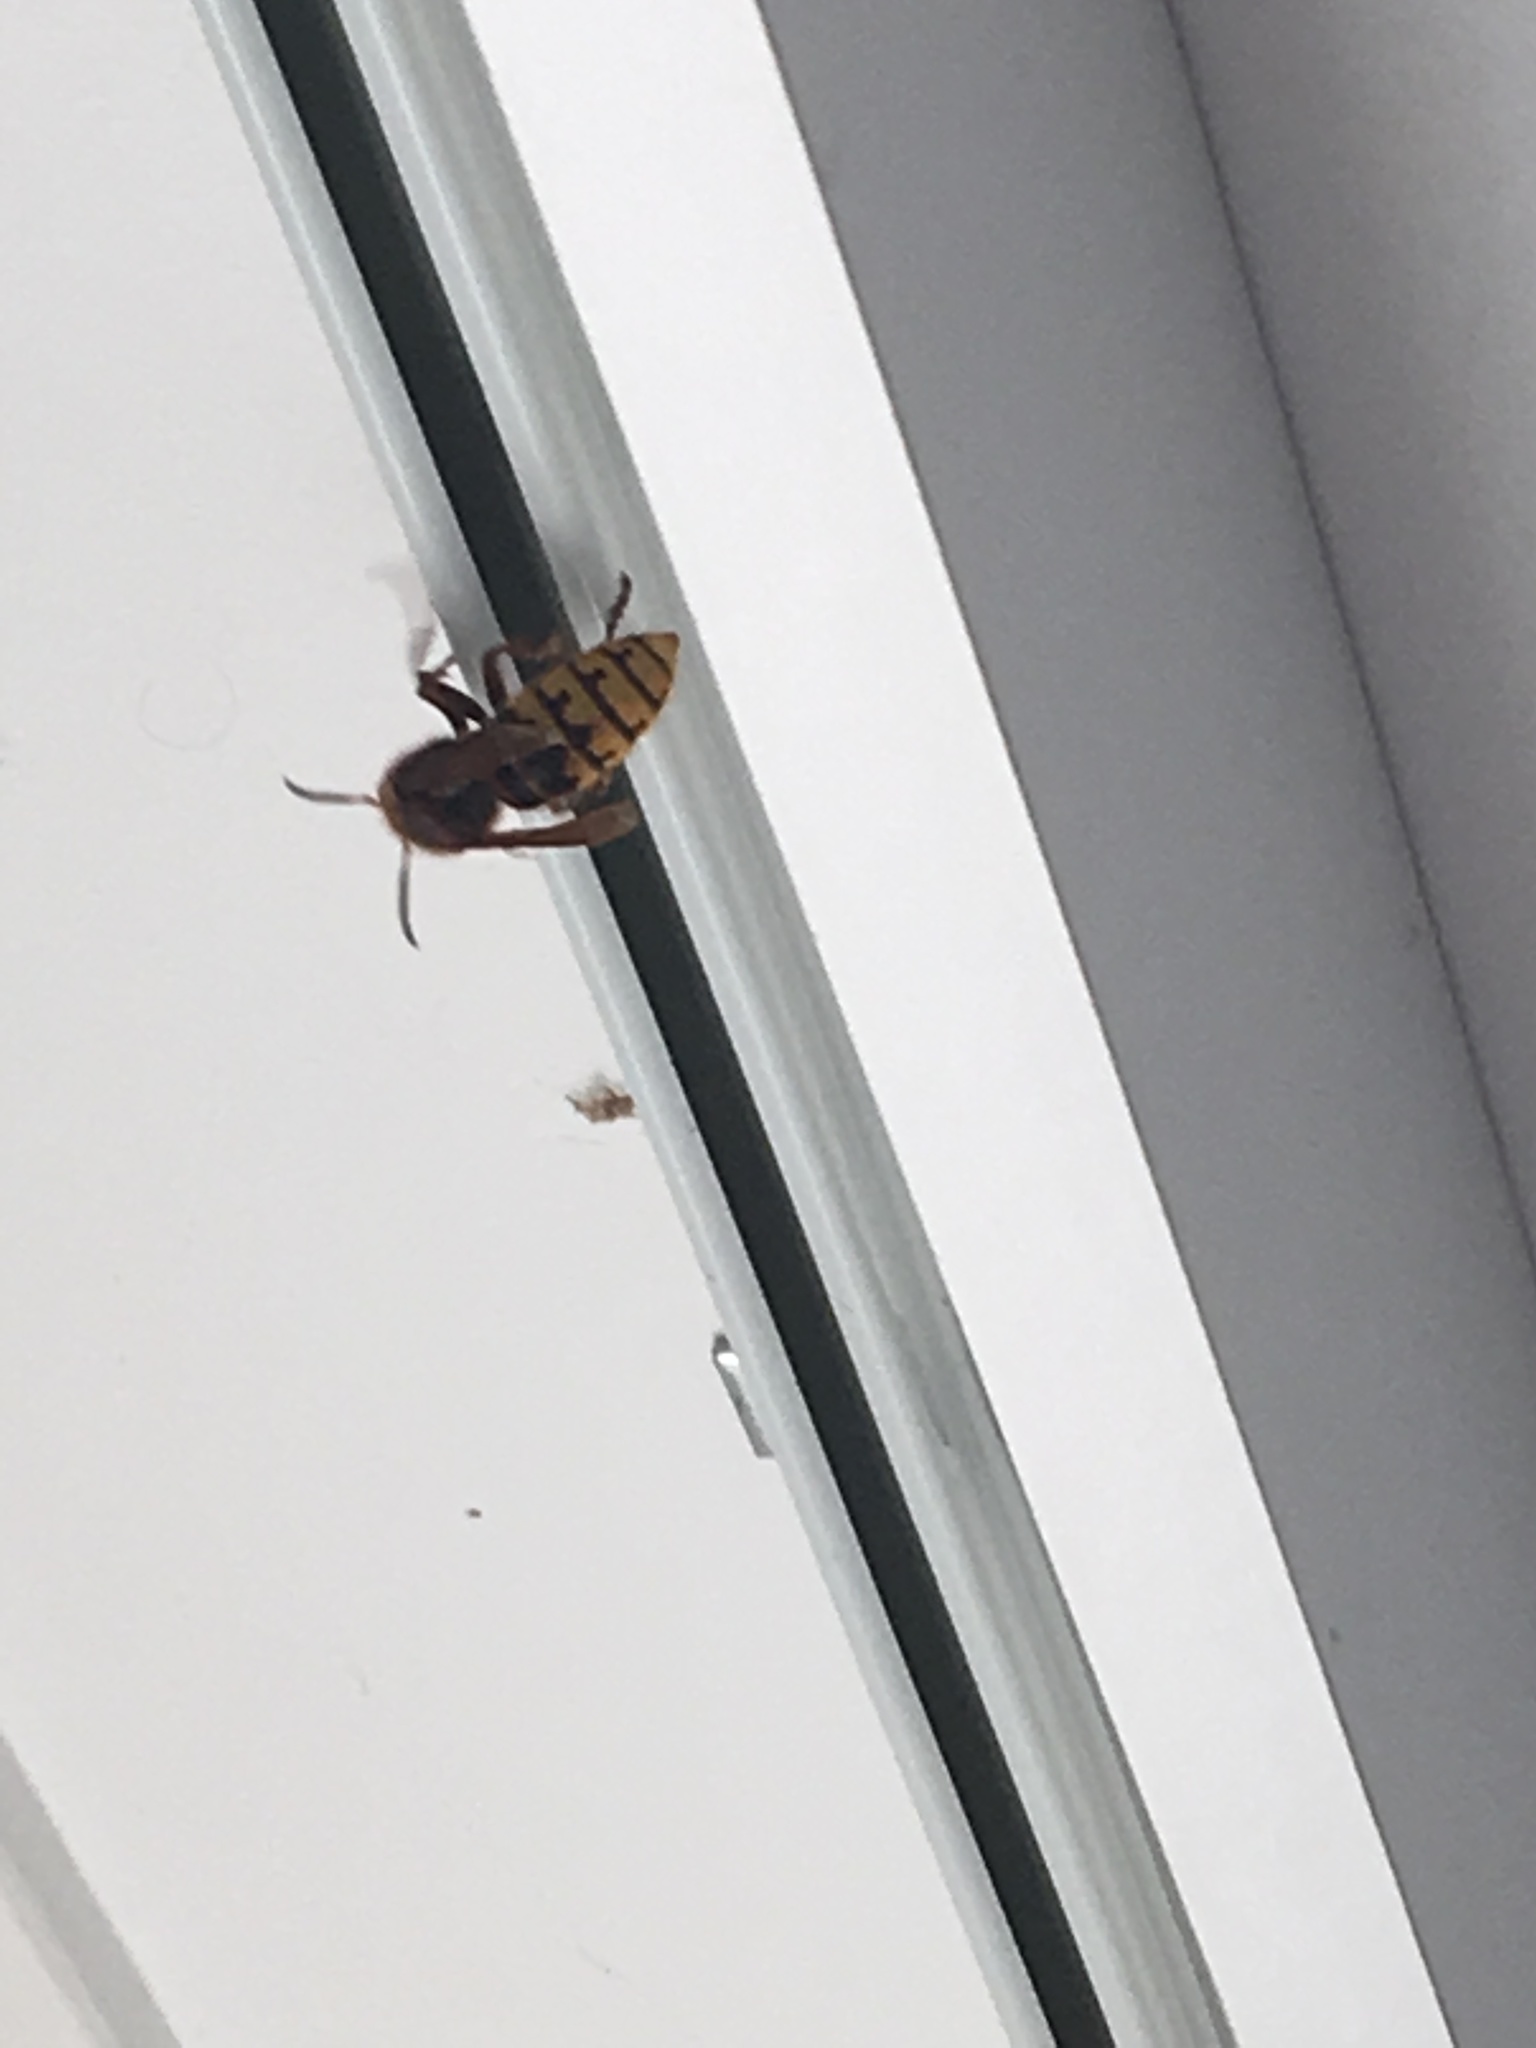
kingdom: Animalia
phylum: Arthropoda
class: Insecta
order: Hymenoptera
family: Vespidae
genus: Vespa
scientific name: Vespa crabro
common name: Hornet
